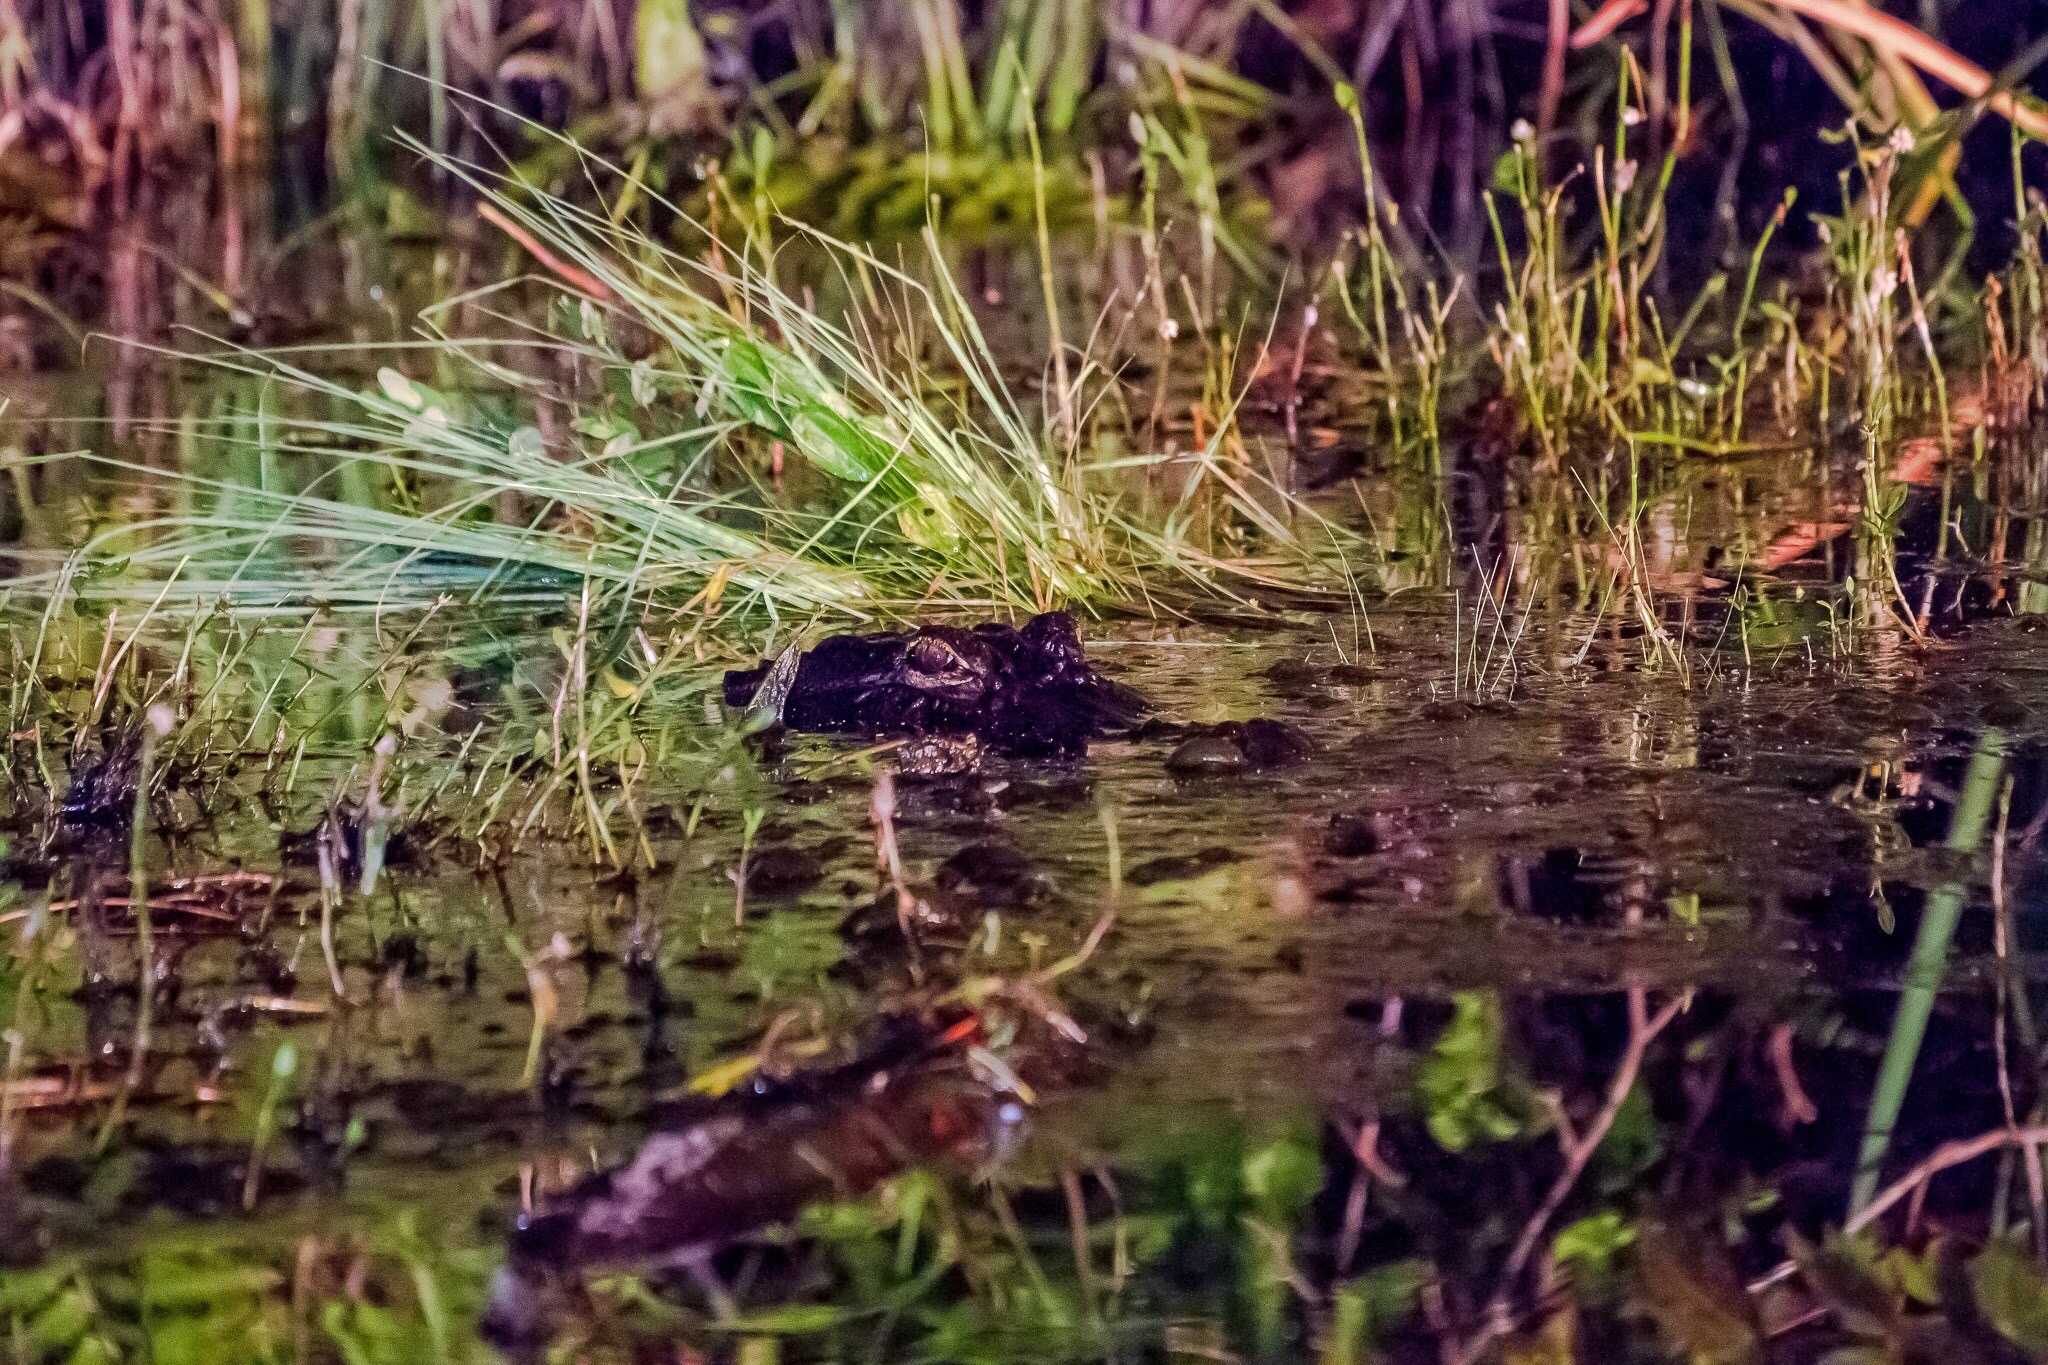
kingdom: Animalia
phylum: Chordata
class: Crocodylia
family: Alligatoridae
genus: Alligator
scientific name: Alligator mississippiensis
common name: American alligator
